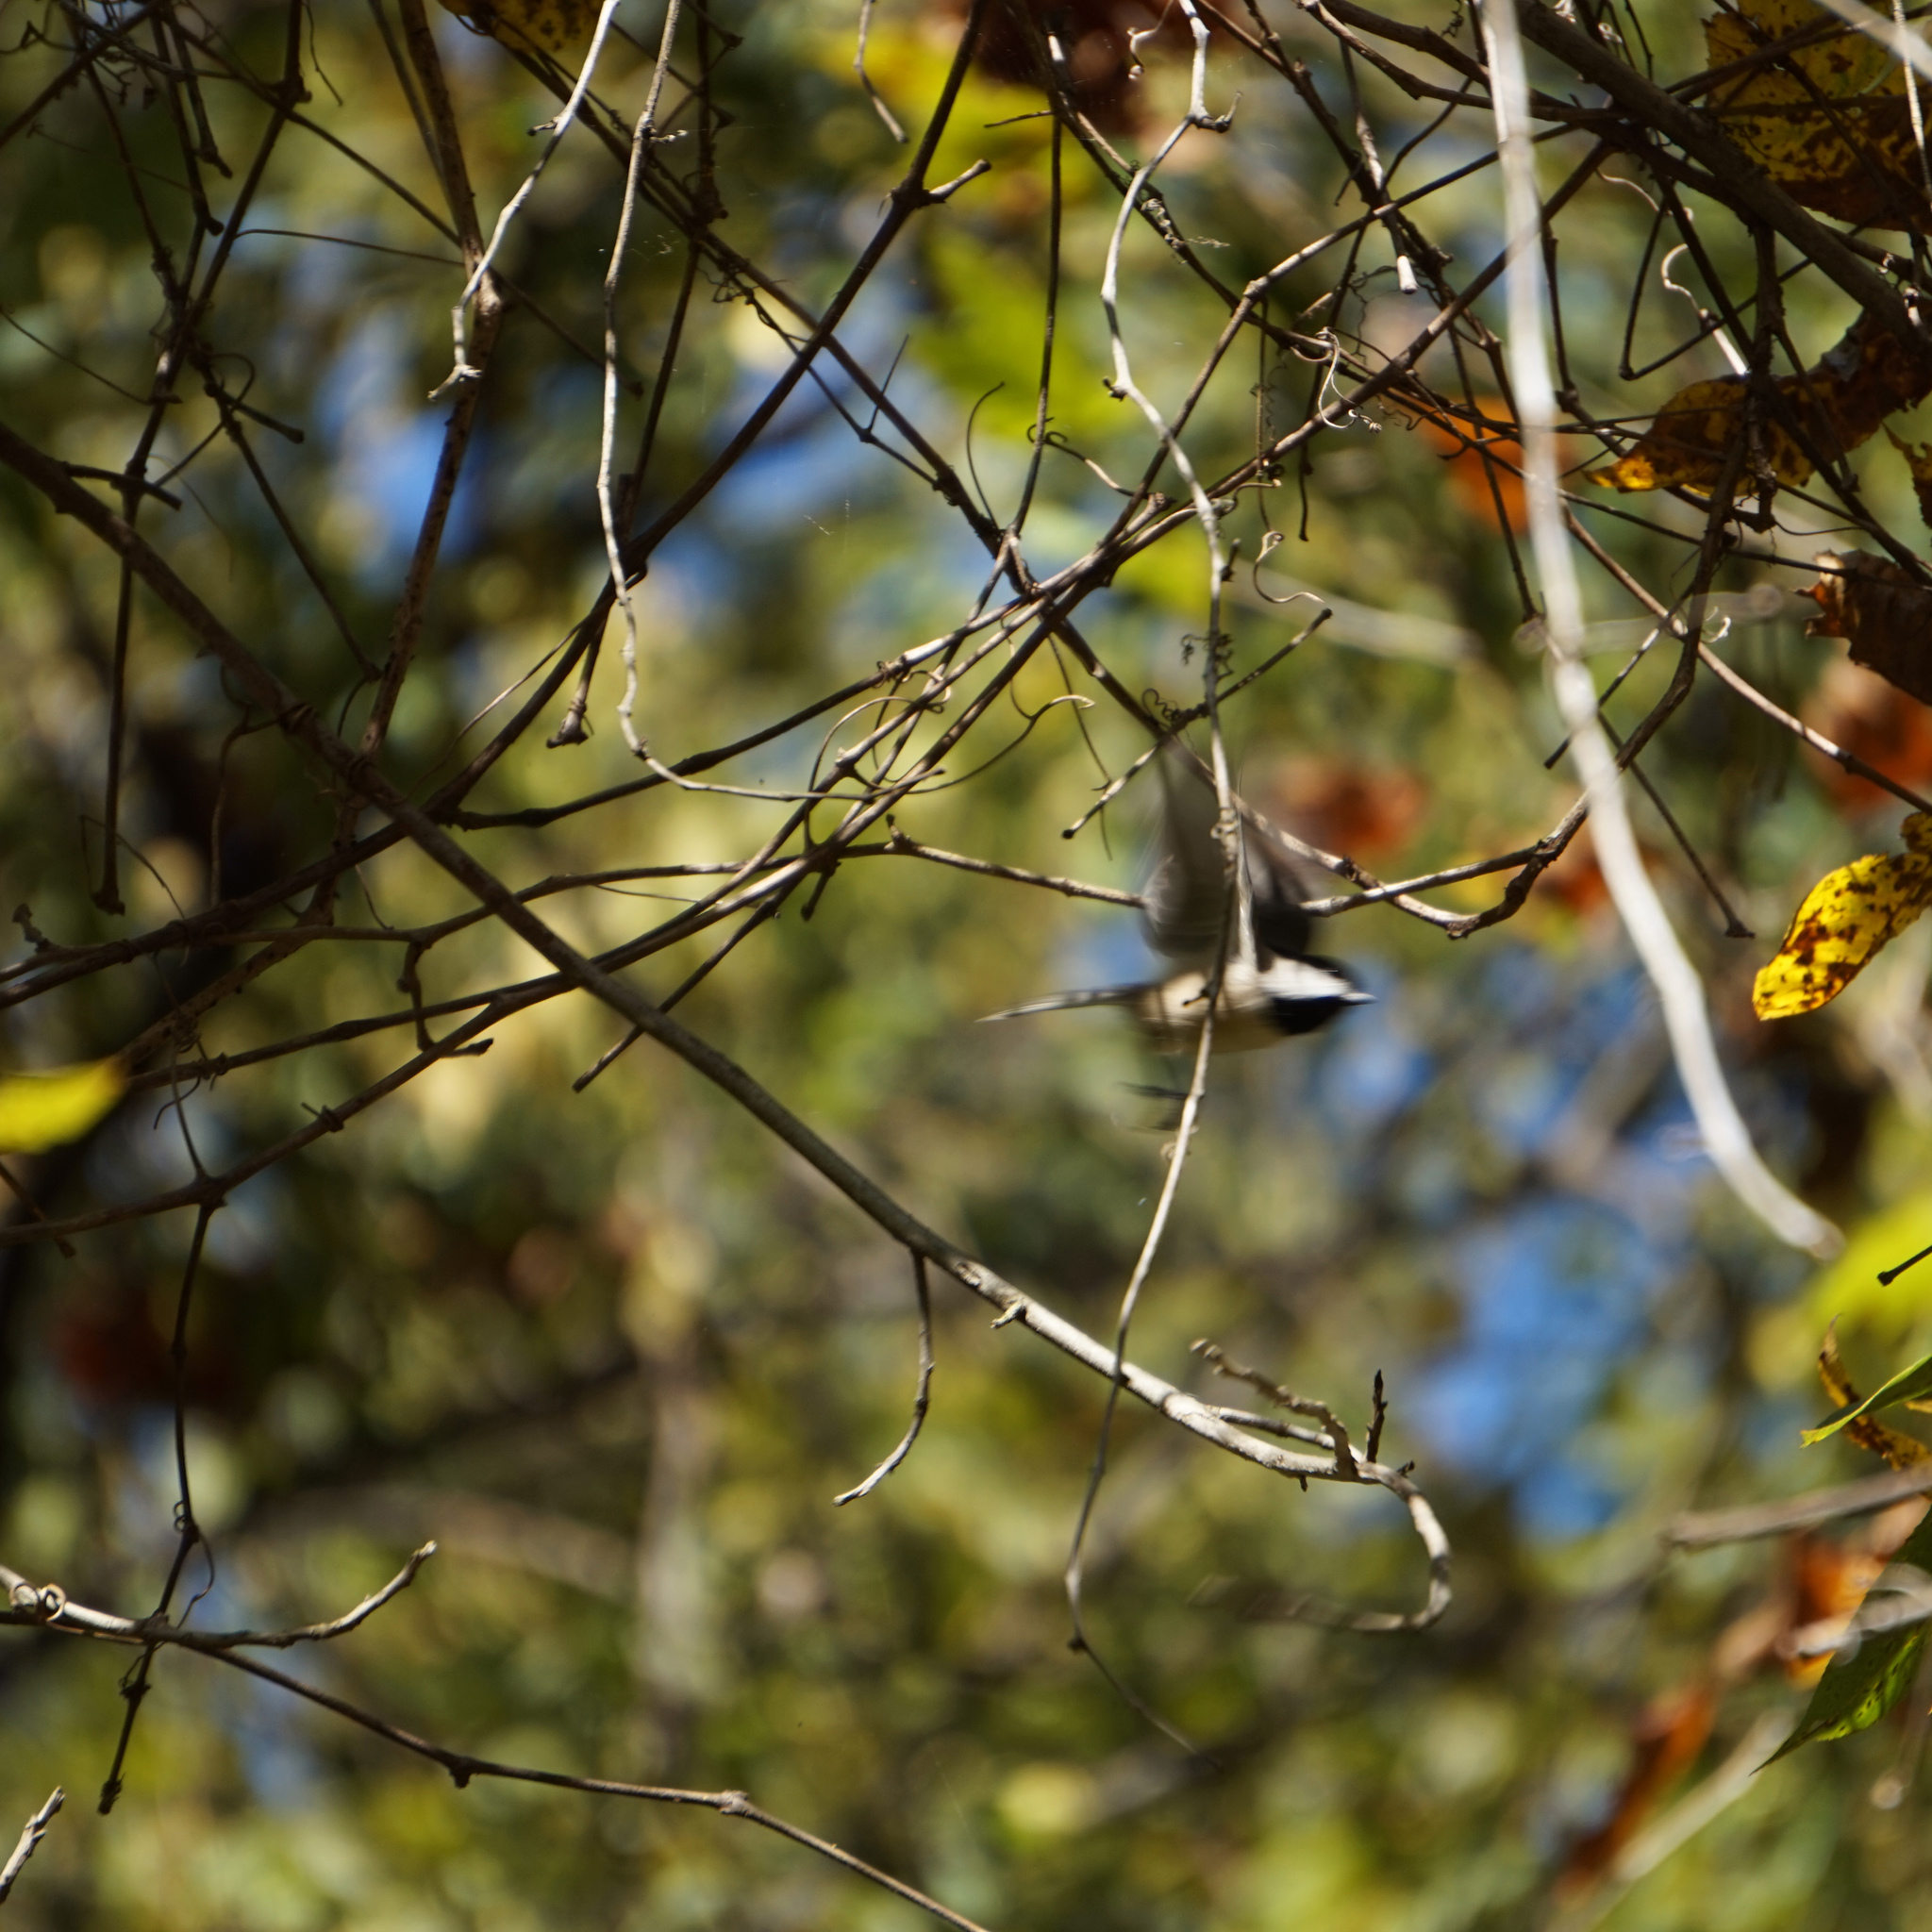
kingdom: Animalia
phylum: Chordata
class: Aves
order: Passeriformes
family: Paridae
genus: Poecile
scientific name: Poecile carolinensis
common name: Carolina chickadee
